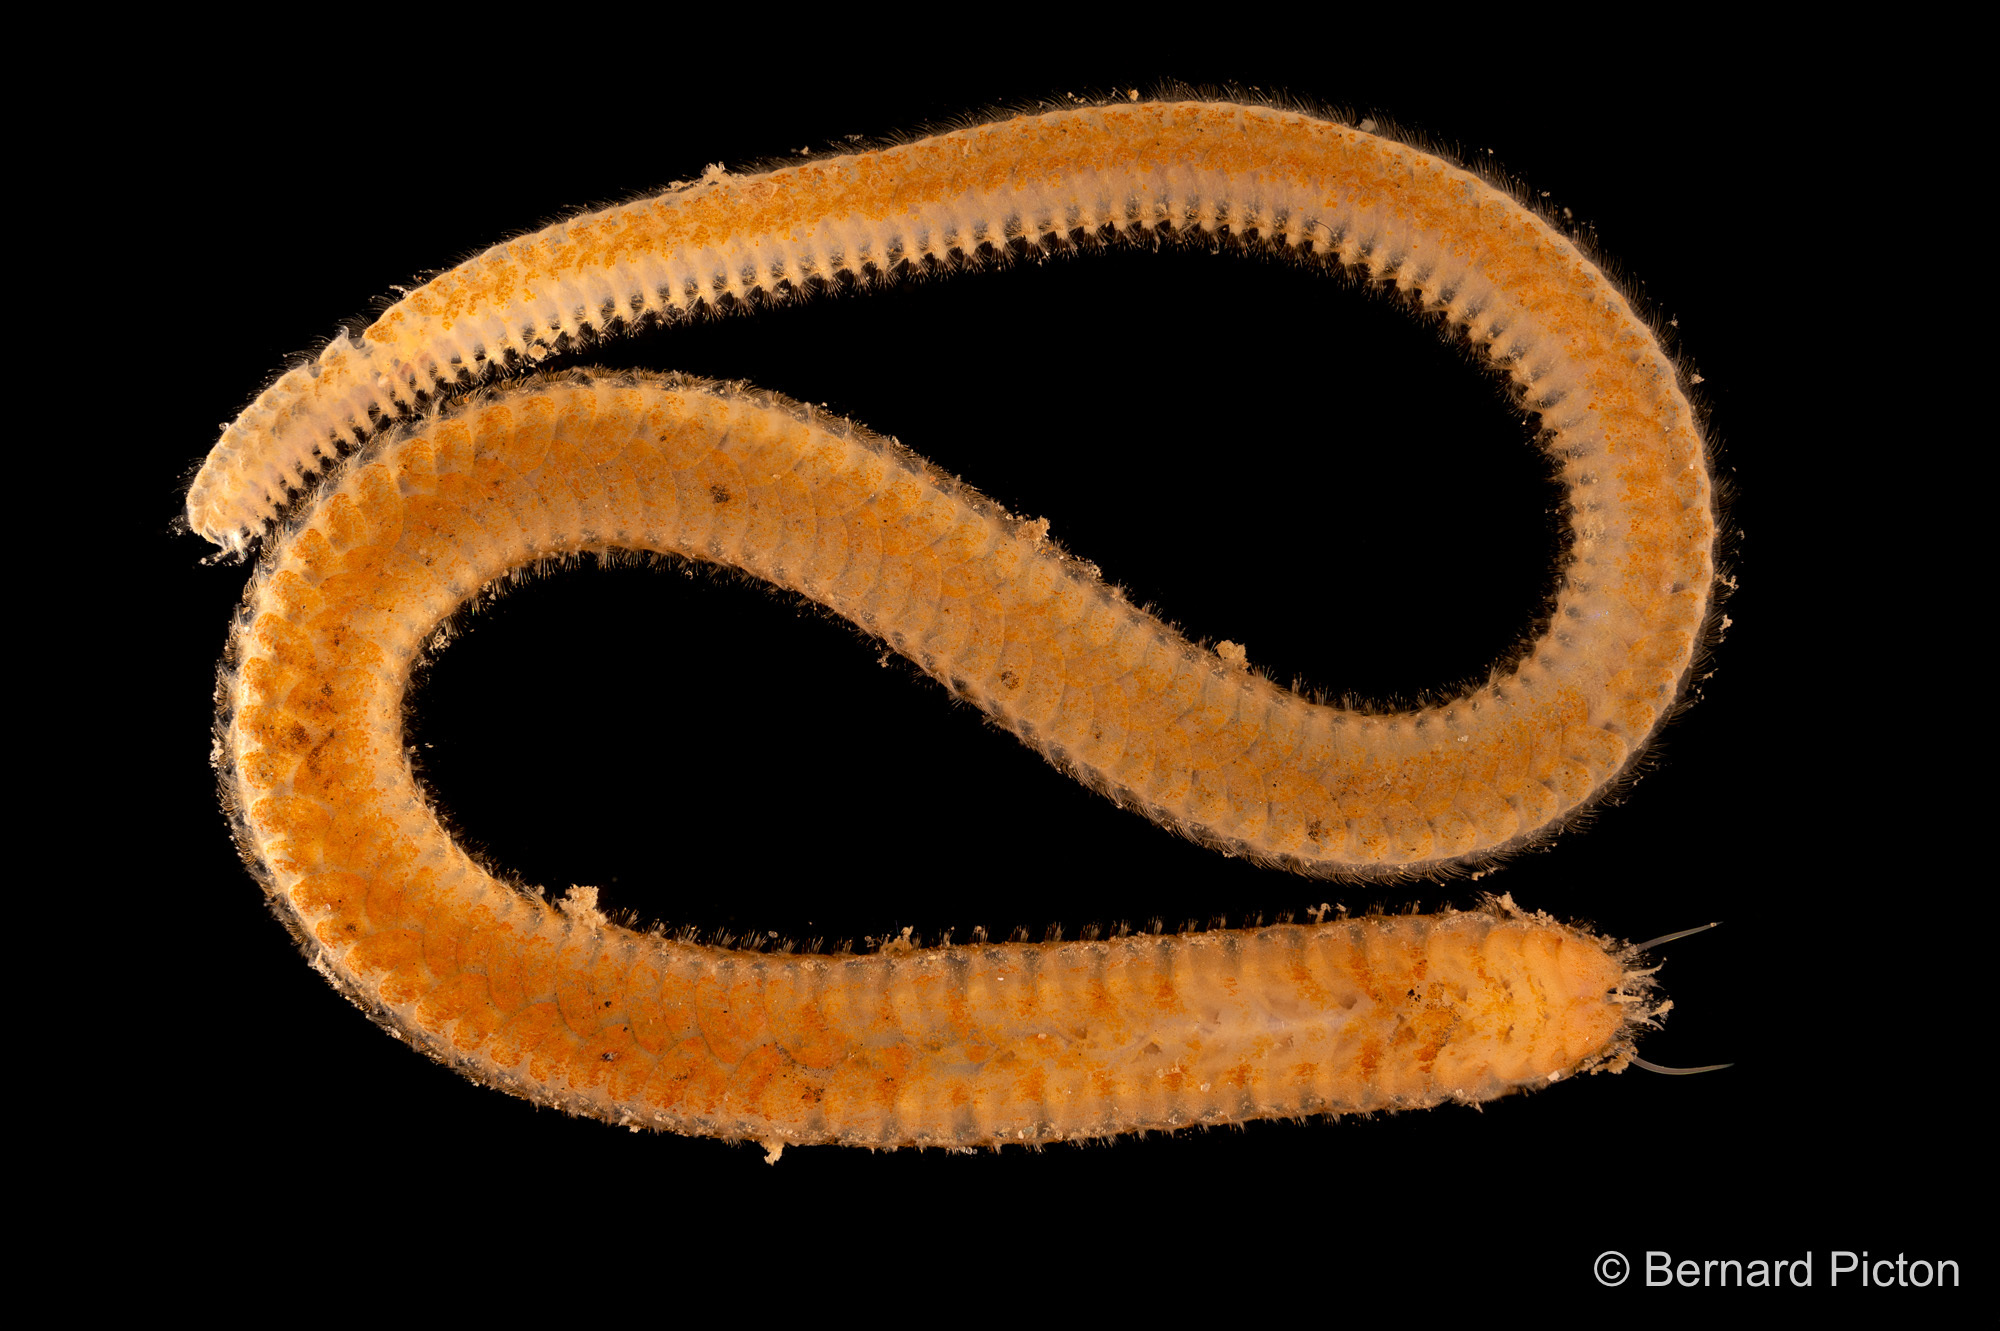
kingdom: Animalia
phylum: Annelida
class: Polychaeta
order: Phyllodocida
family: Sigalionidae
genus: Sthenelais
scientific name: Sthenelais boa
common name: Boa worm
